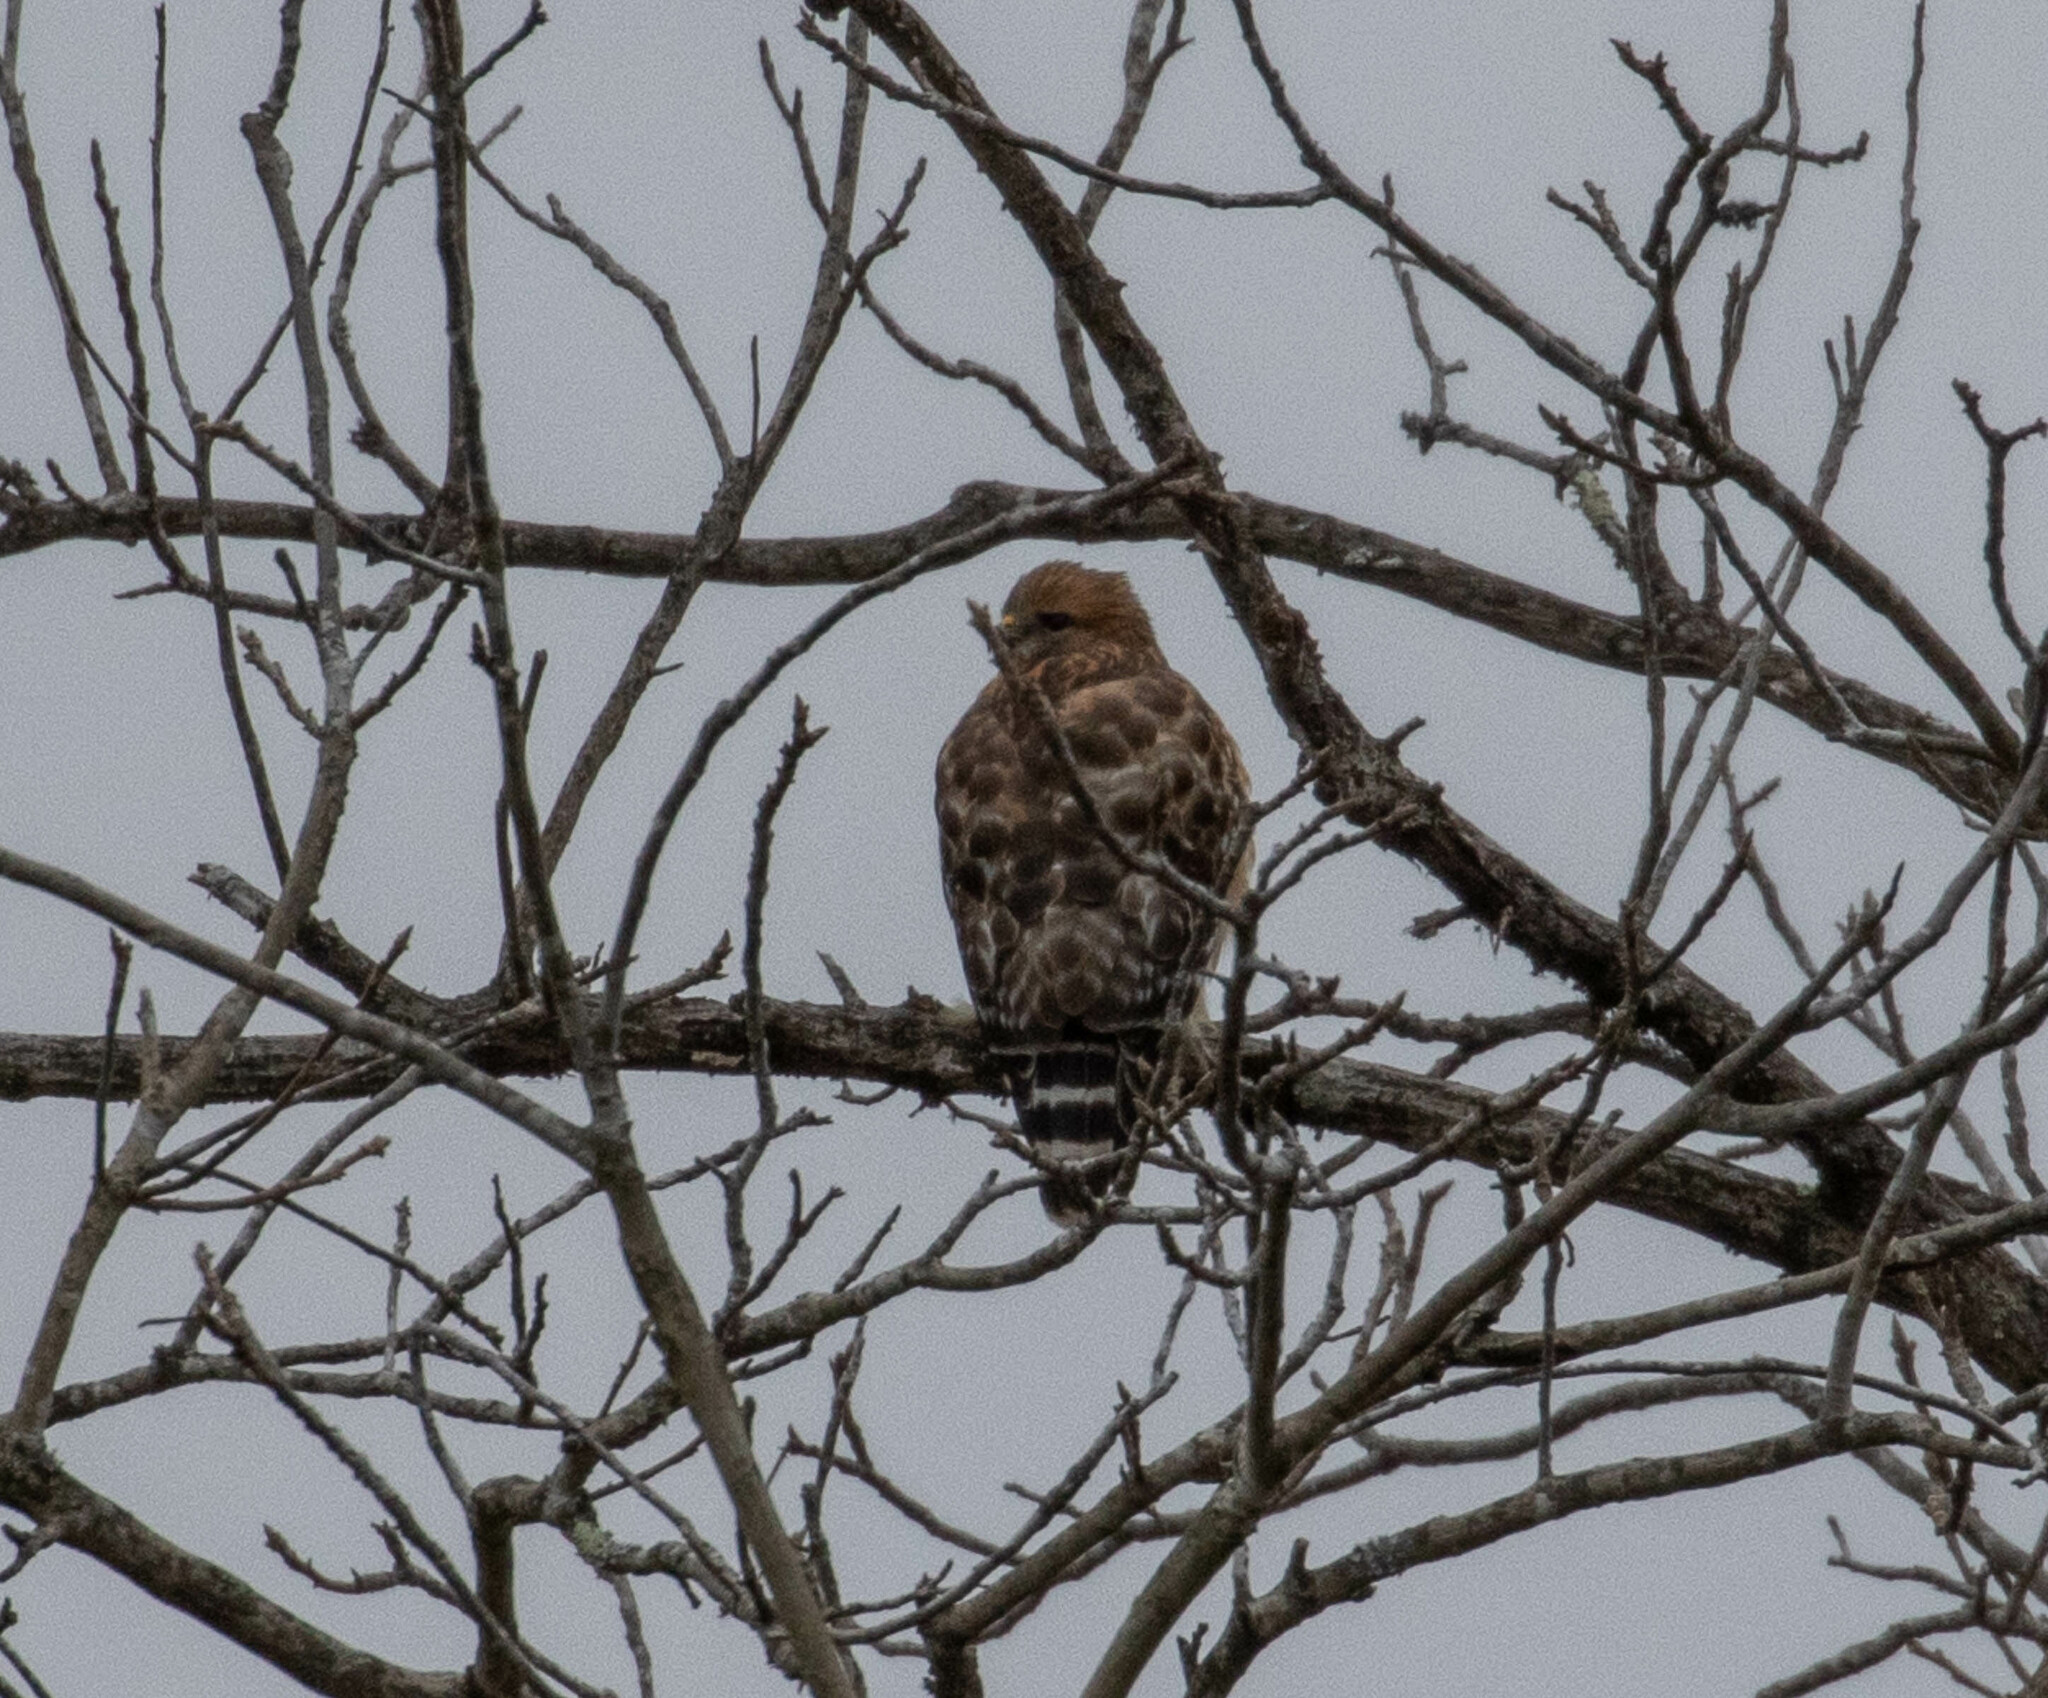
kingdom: Animalia
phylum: Chordata
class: Aves
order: Accipitriformes
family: Accipitridae
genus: Buteo
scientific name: Buteo lineatus
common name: Red-shouldered hawk
